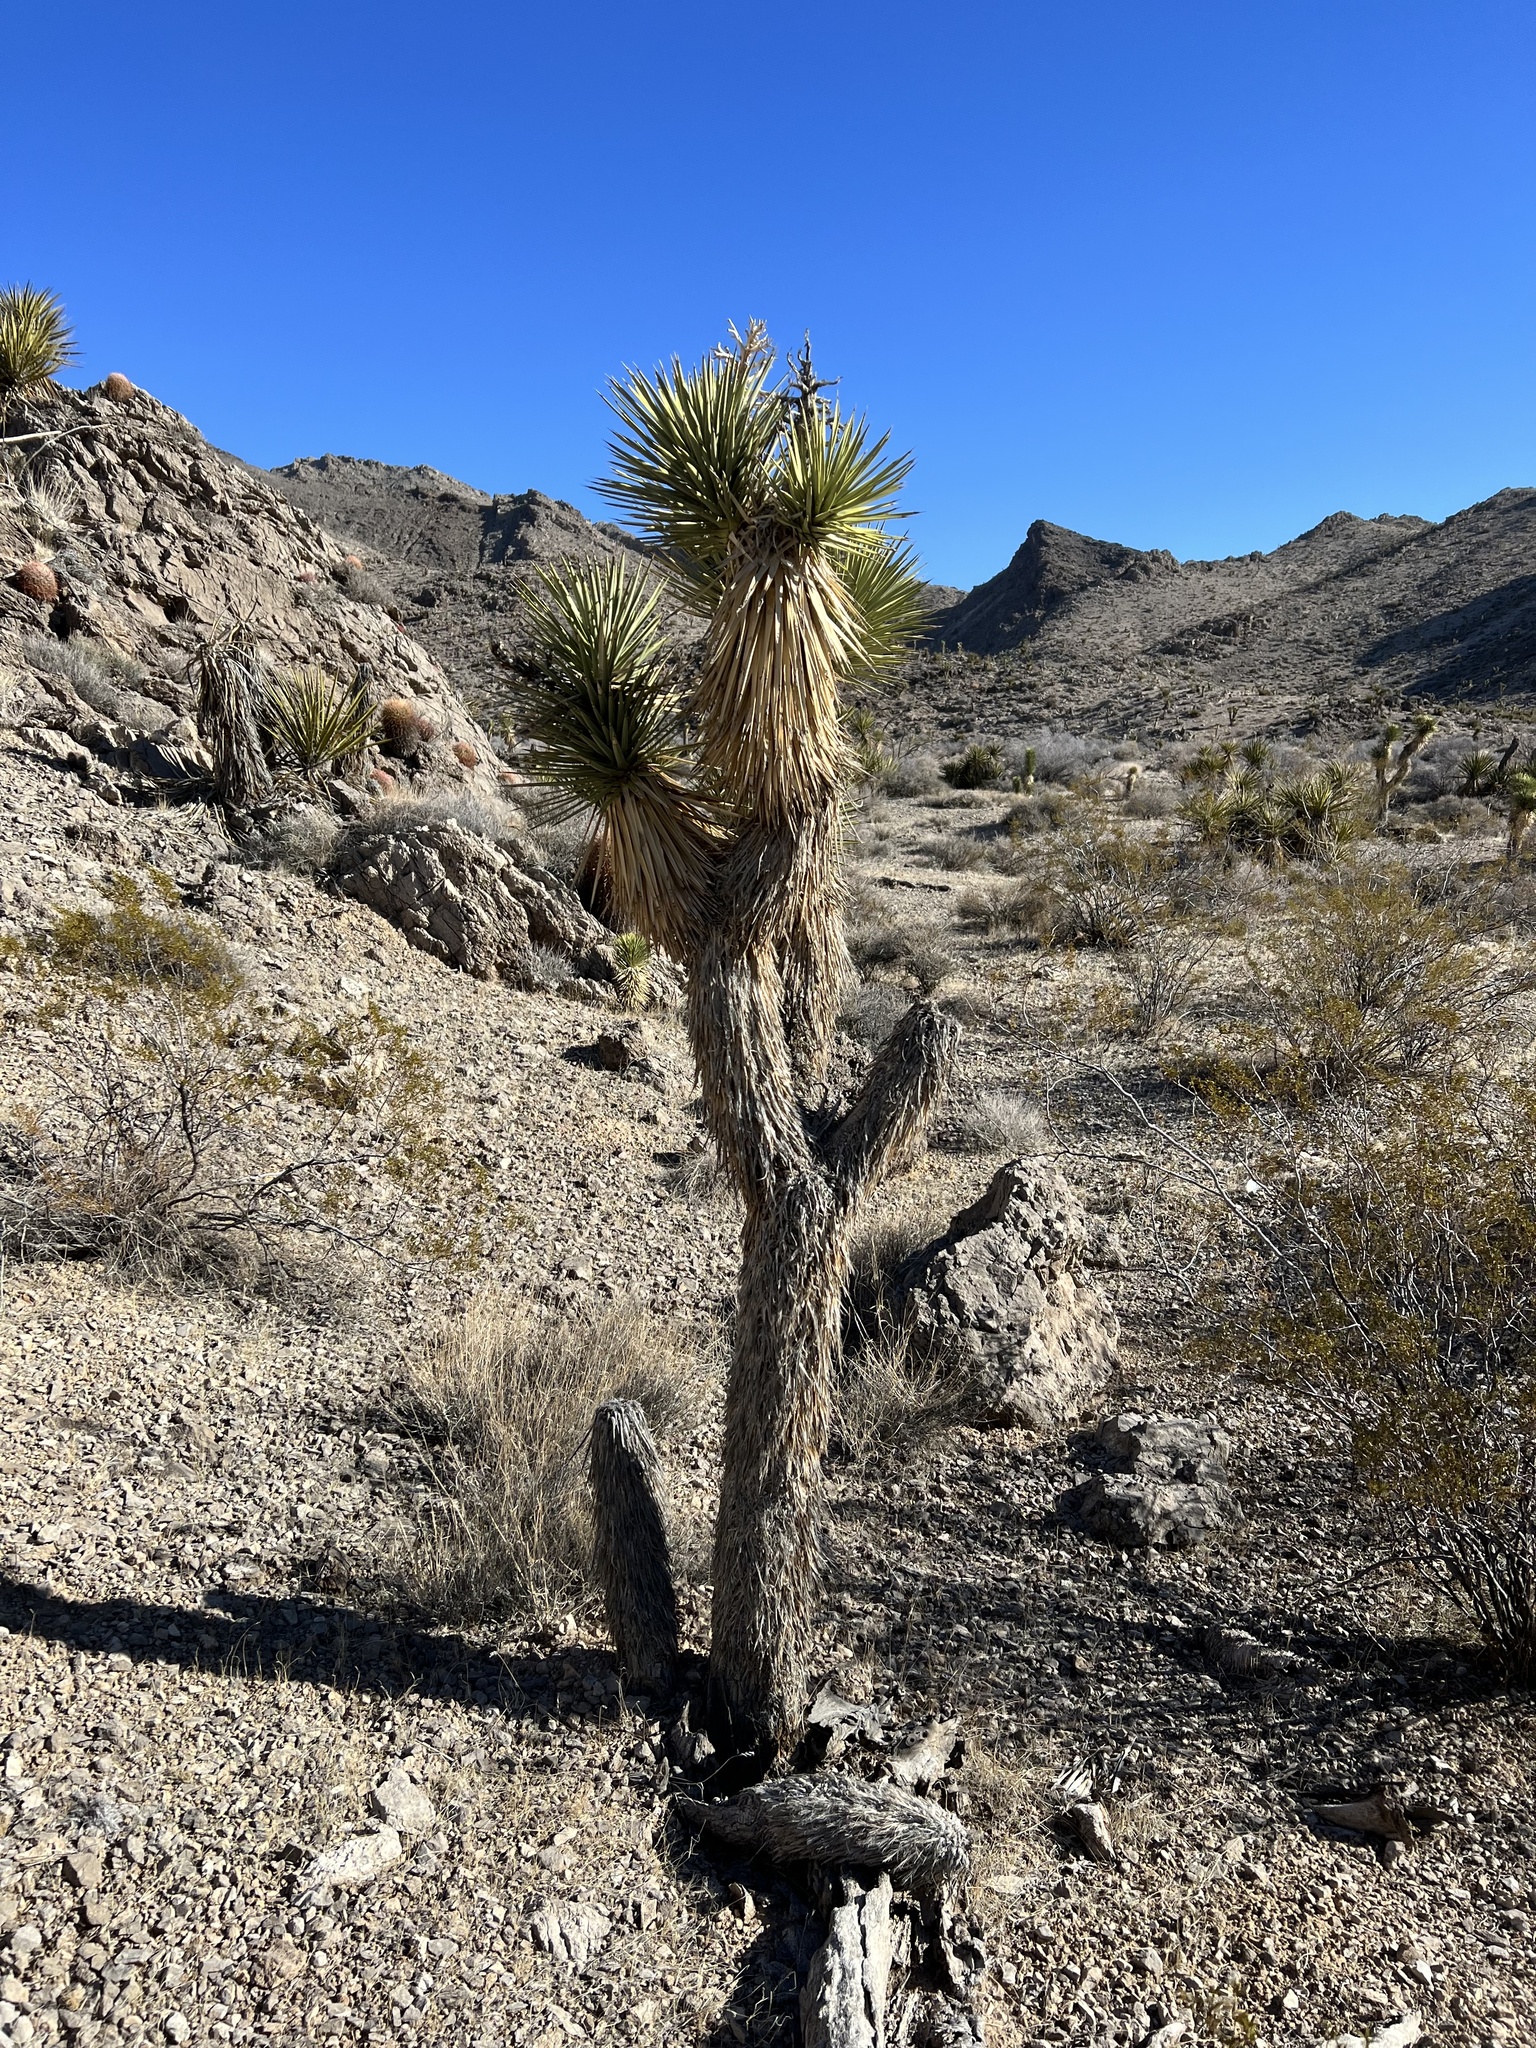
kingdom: Plantae
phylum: Tracheophyta
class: Liliopsida
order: Asparagales
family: Asparagaceae
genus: Yucca
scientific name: Yucca brevifolia
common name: Joshua tree
